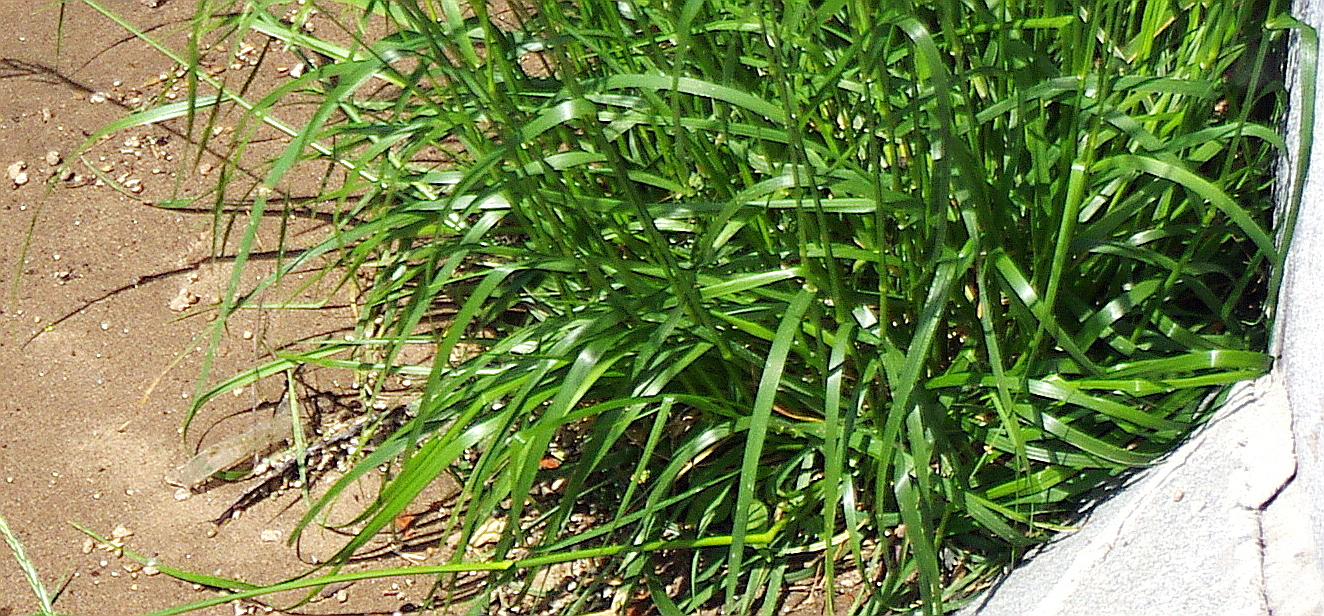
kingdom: Plantae
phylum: Tracheophyta
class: Liliopsida
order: Poales
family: Poaceae
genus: Lolium
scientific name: Lolium arundinaceum
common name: Reed fescue
